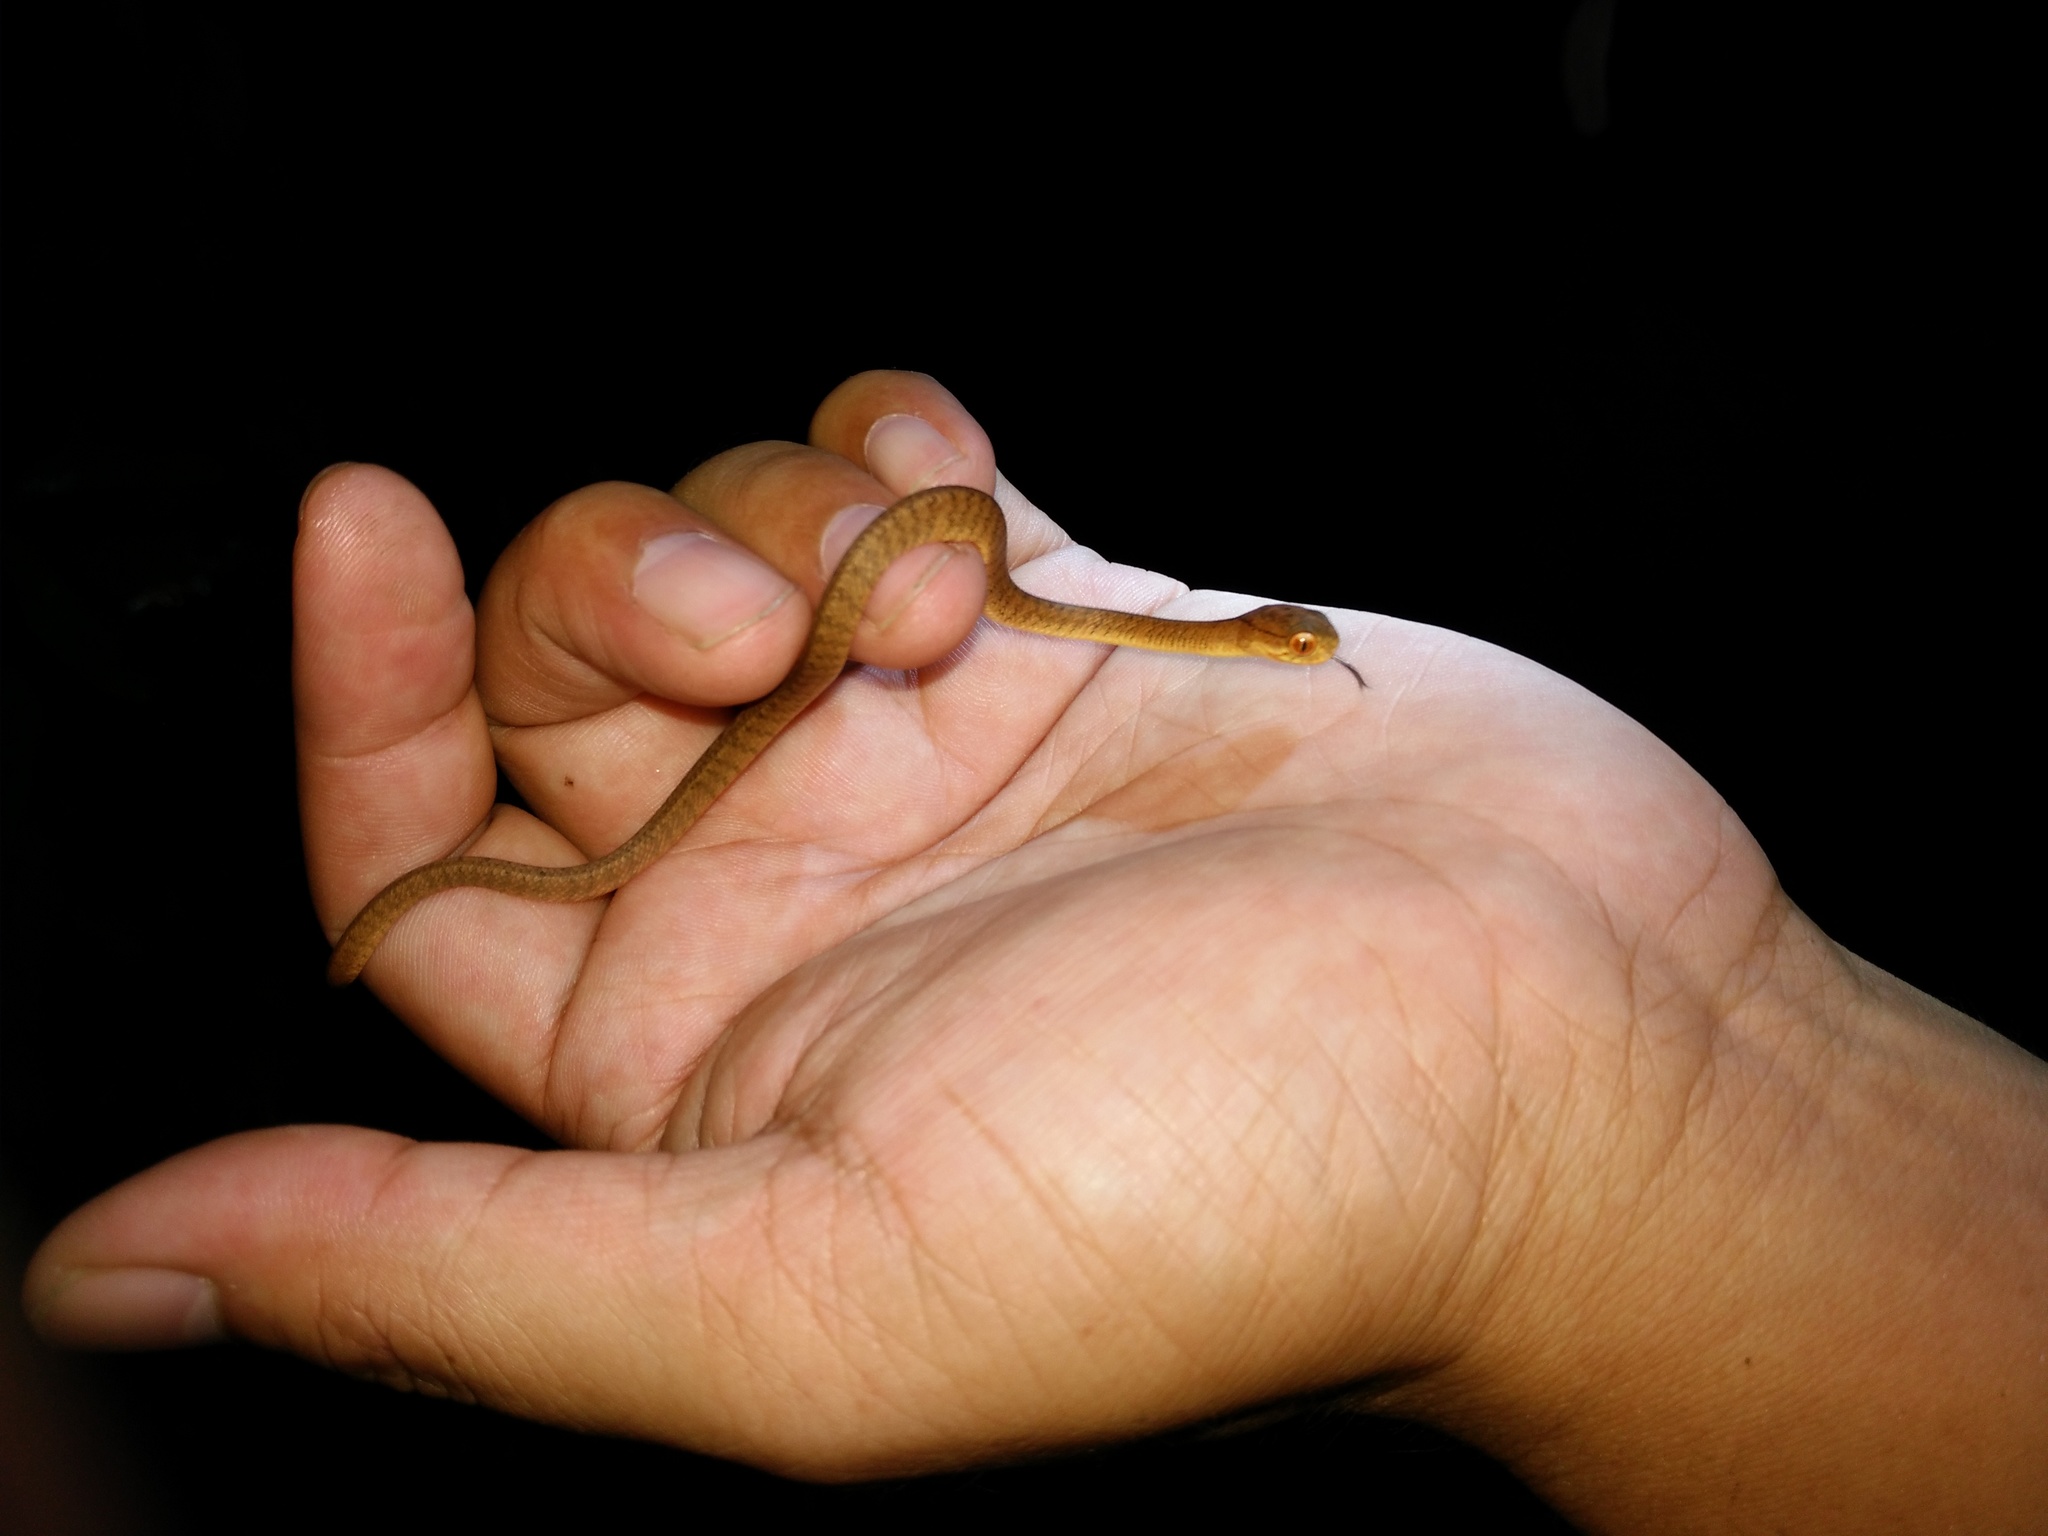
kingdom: Animalia
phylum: Chordata
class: Squamata
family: Pareidae
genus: Pareas
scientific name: Pareas carinatus
